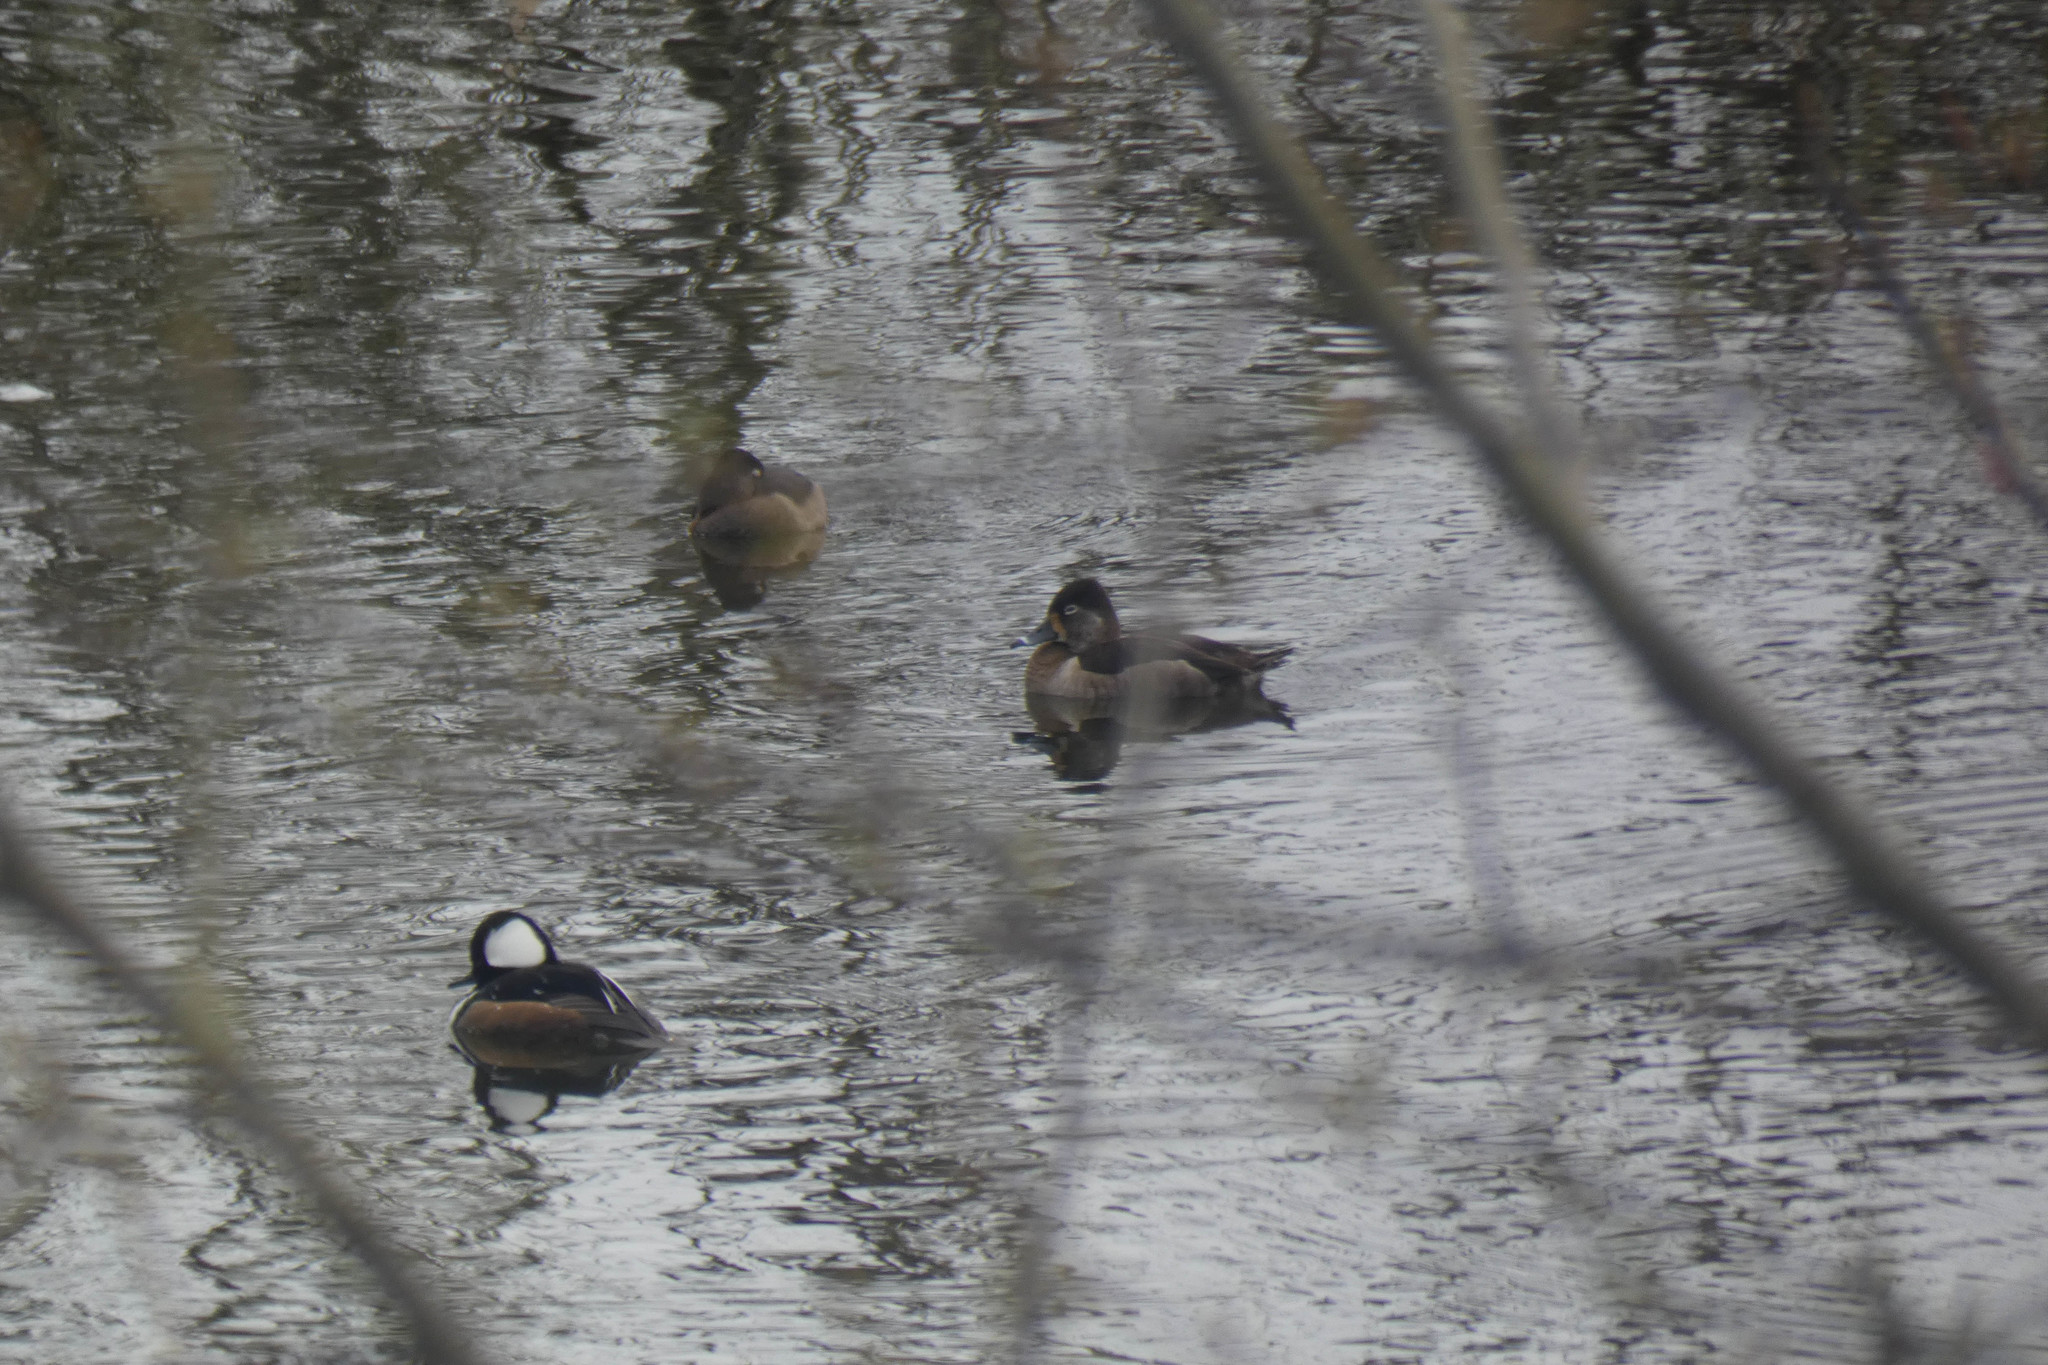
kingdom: Animalia
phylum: Chordata
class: Aves
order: Anseriformes
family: Anatidae
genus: Aythya
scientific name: Aythya collaris
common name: Ring-necked duck
